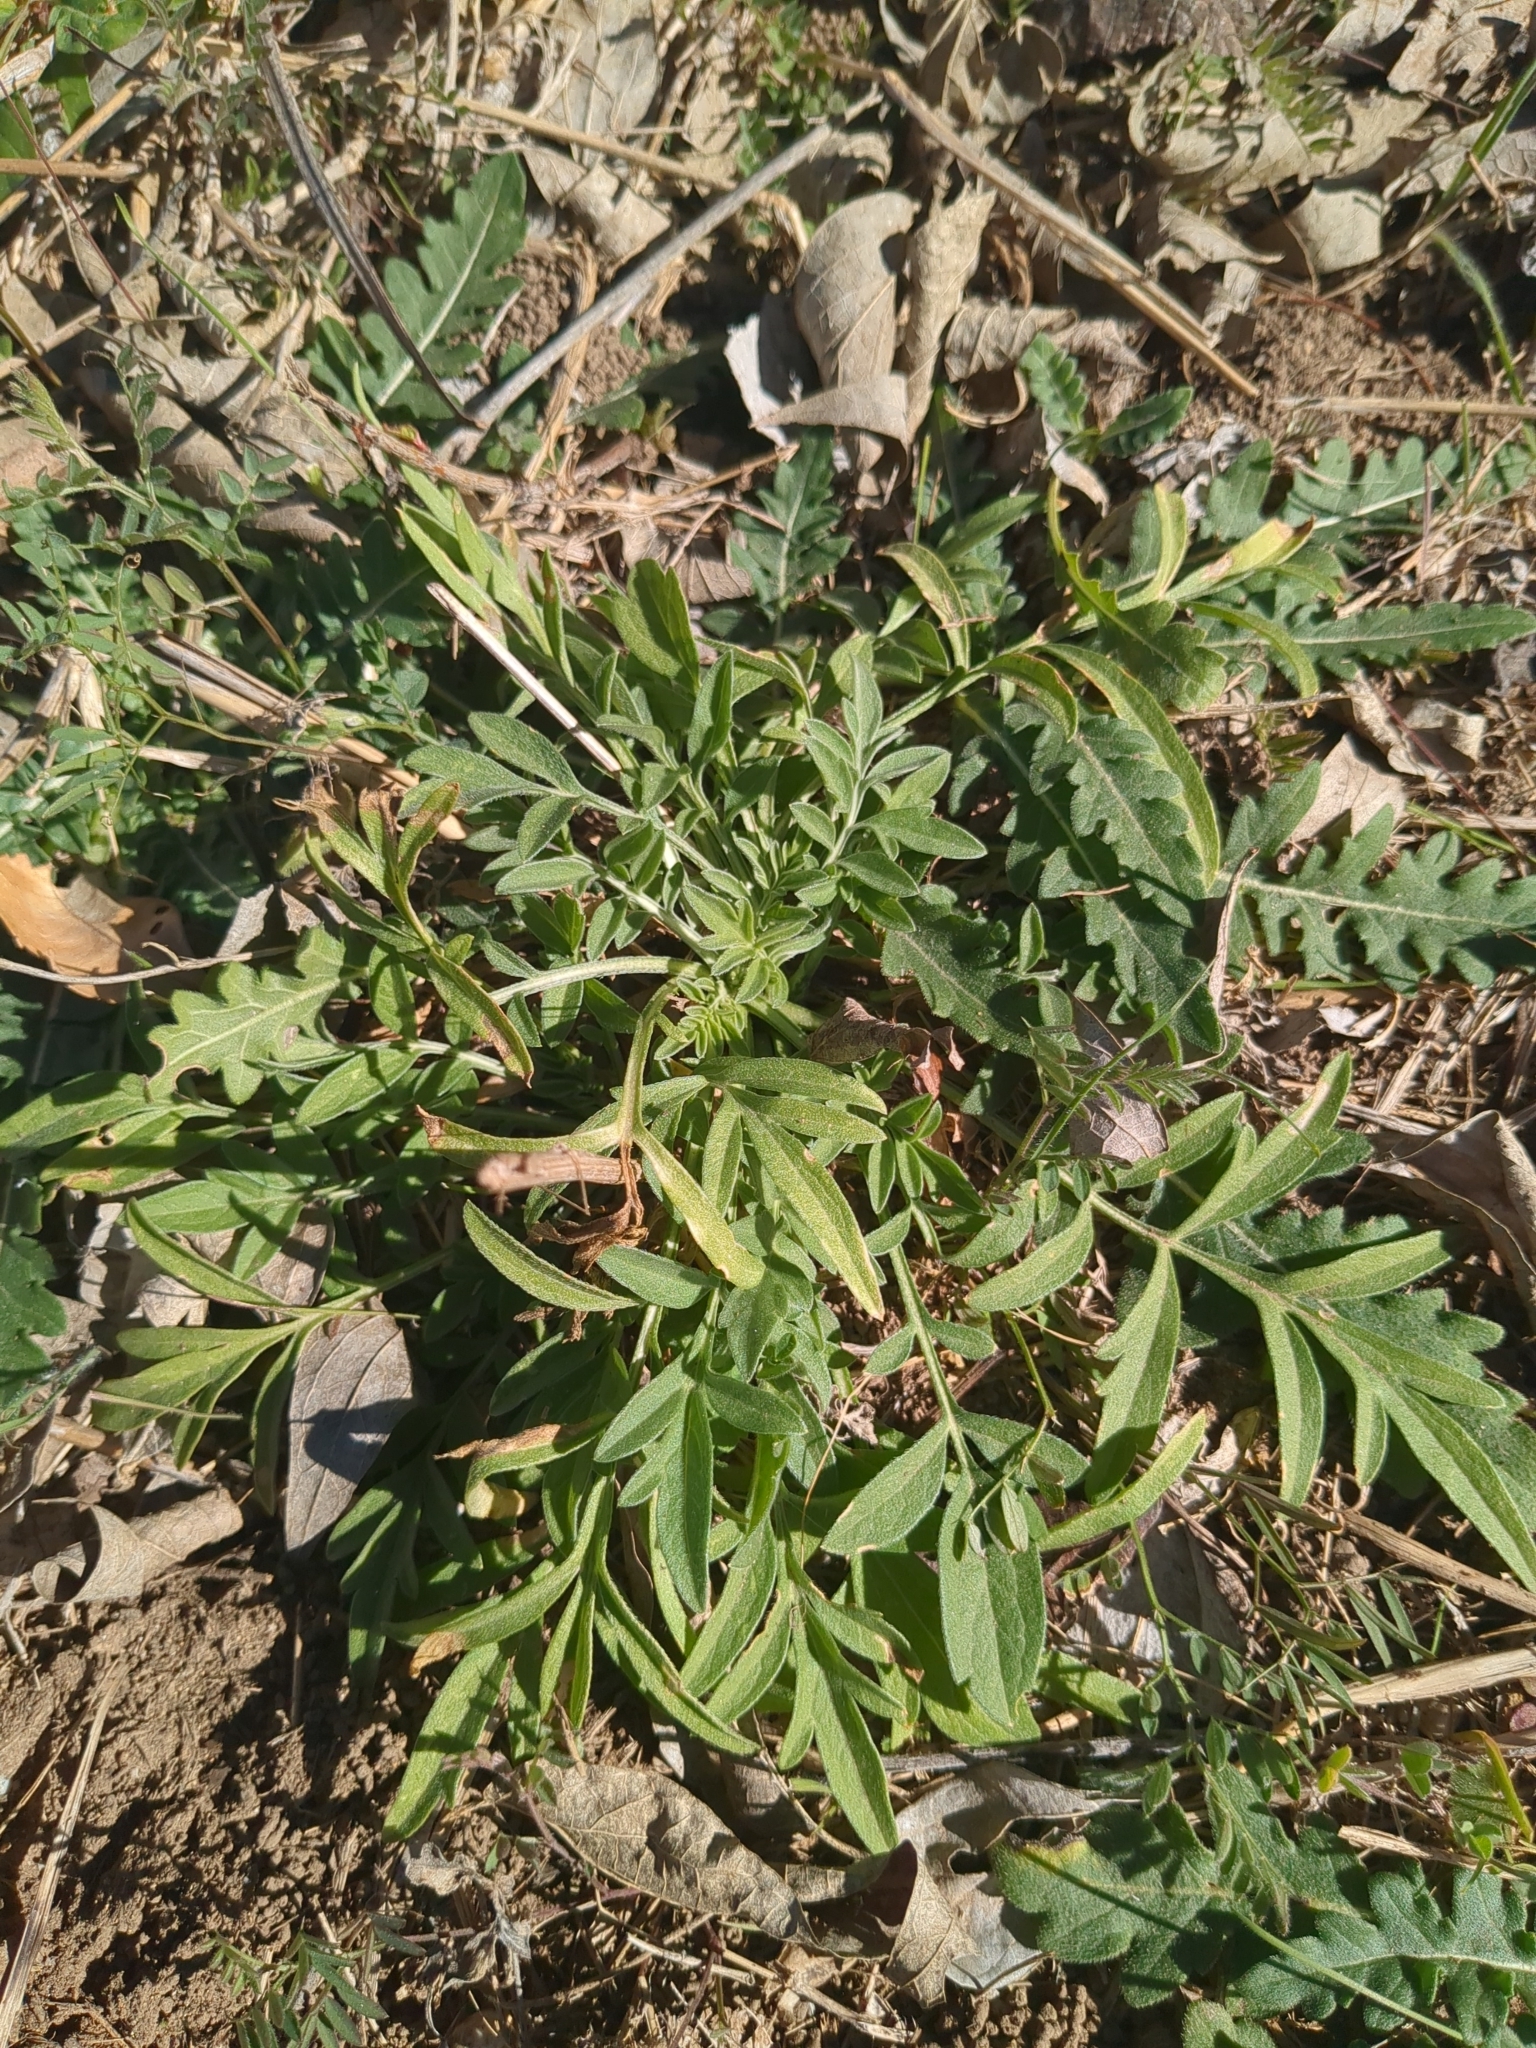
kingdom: Plantae
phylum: Tracheophyta
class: Magnoliopsida
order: Asterales
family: Asteraceae
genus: Ratibida
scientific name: Ratibida columnifera
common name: Prairie coneflower
